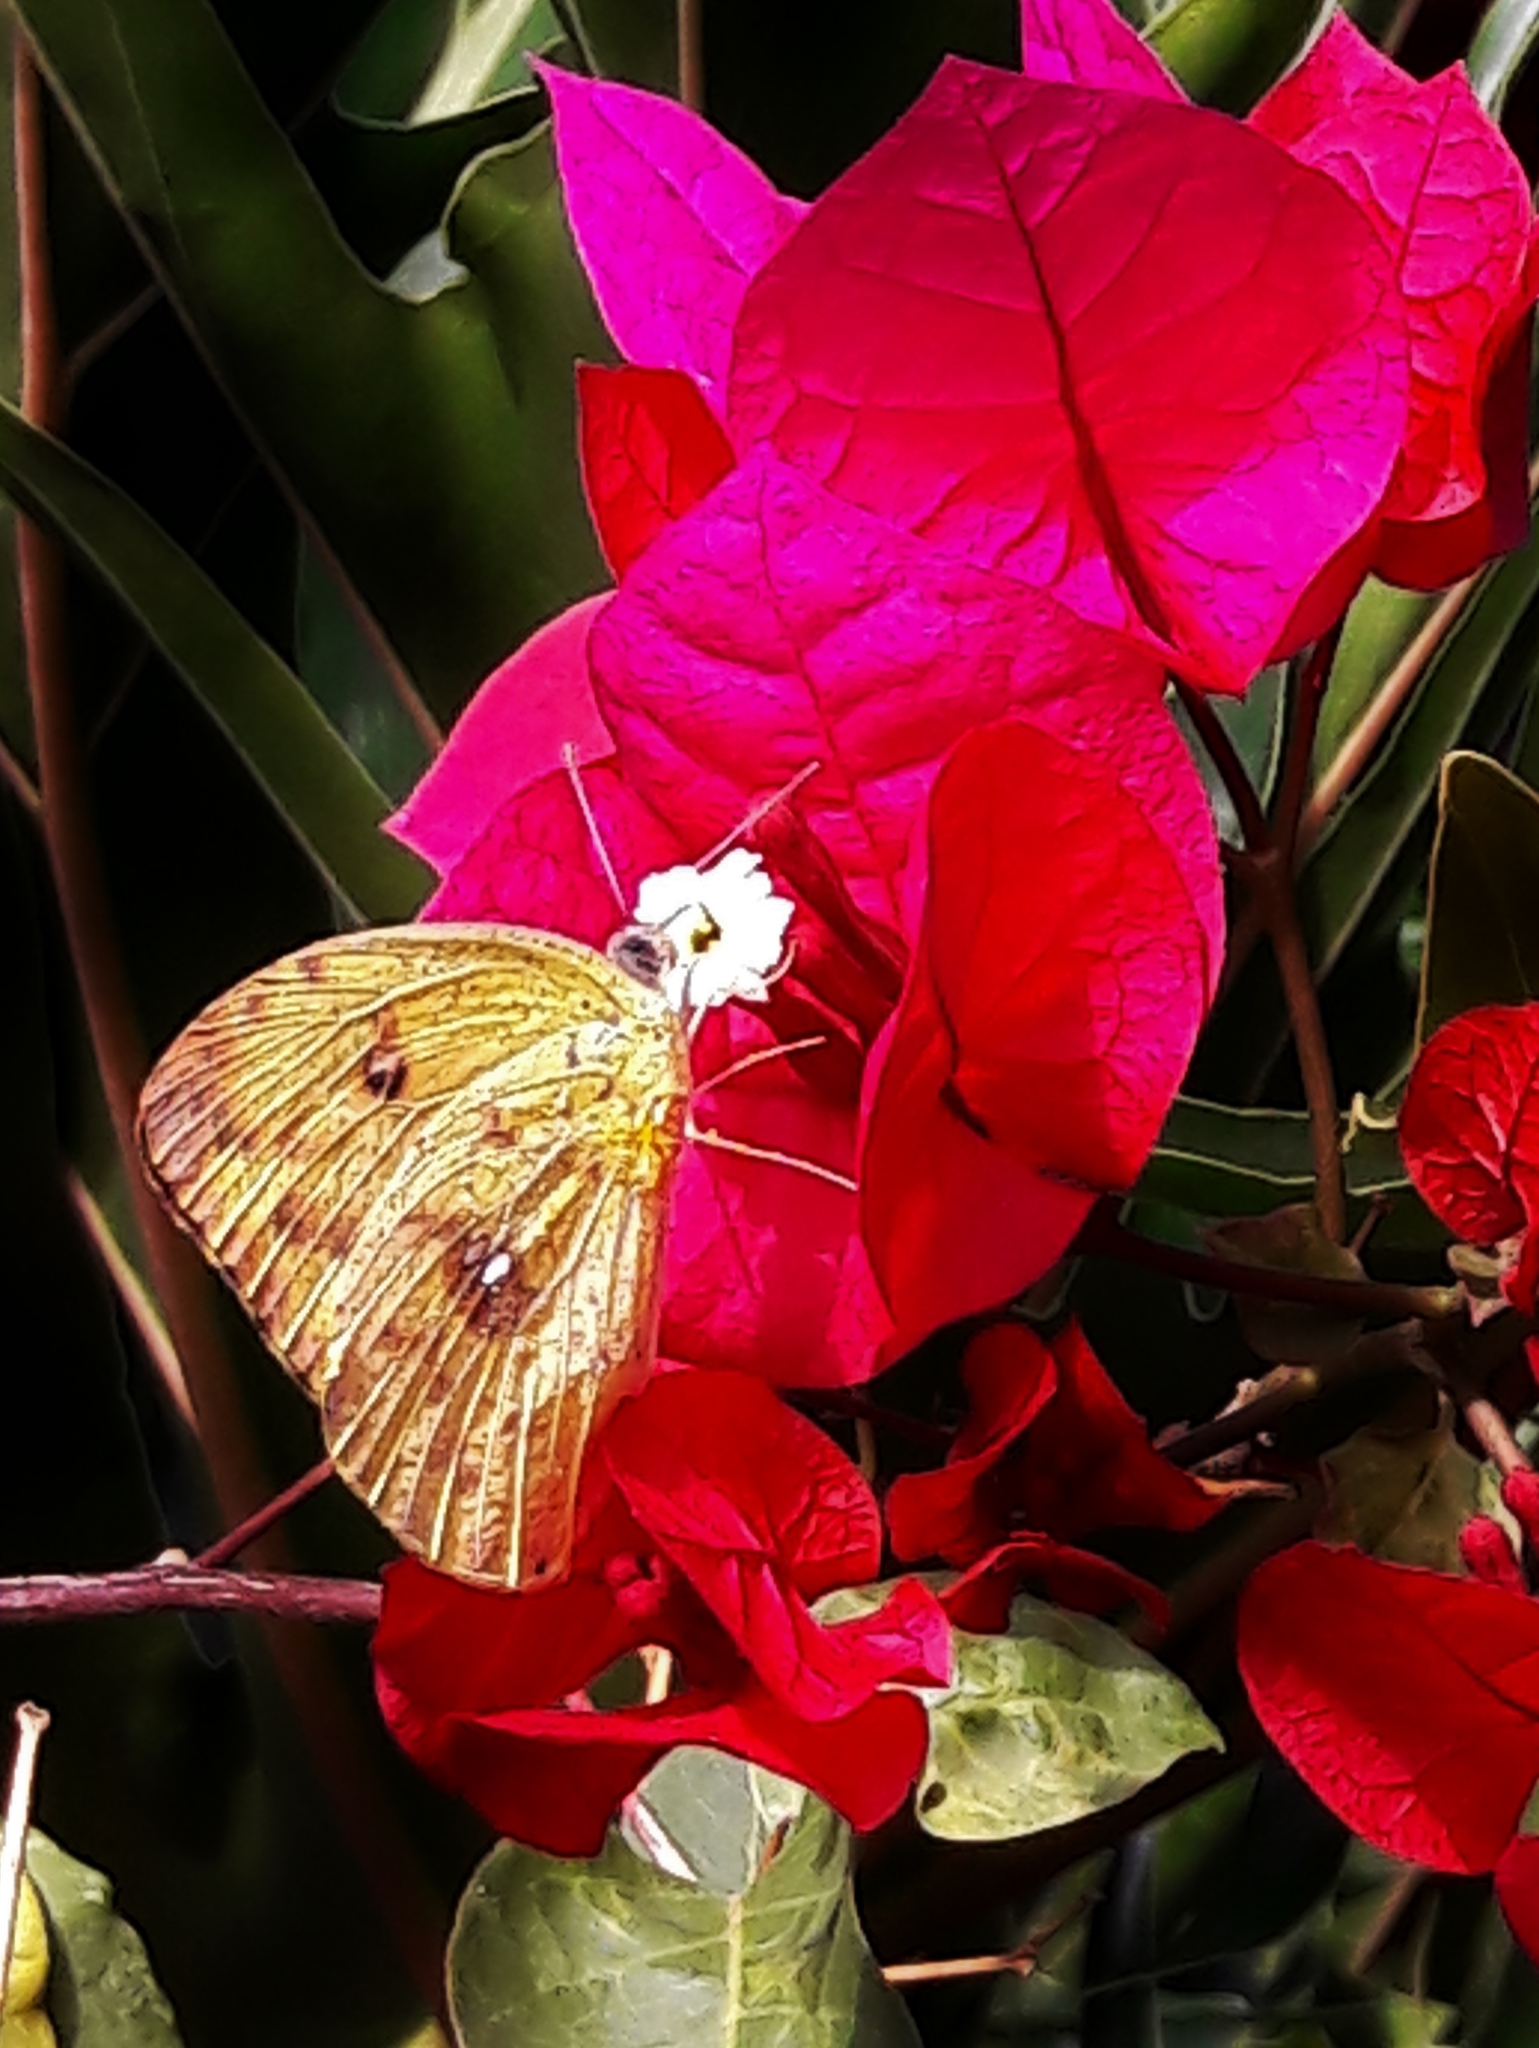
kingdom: Animalia
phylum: Arthropoda
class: Insecta
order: Lepidoptera
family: Pieridae
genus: Phoebis
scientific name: Phoebis argante
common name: Apricot sulphur
